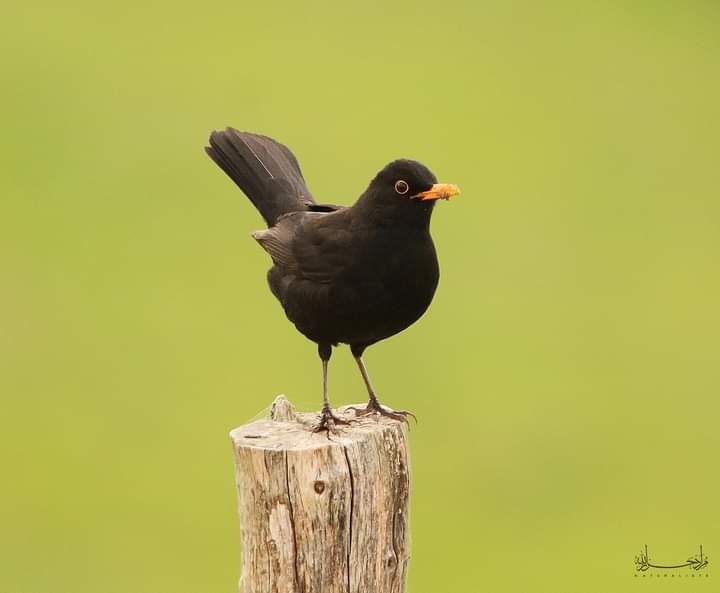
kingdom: Animalia
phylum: Chordata
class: Aves
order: Passeriformes
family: Turdidae
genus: Turdus
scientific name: Turdus merula
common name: Common blackbird
